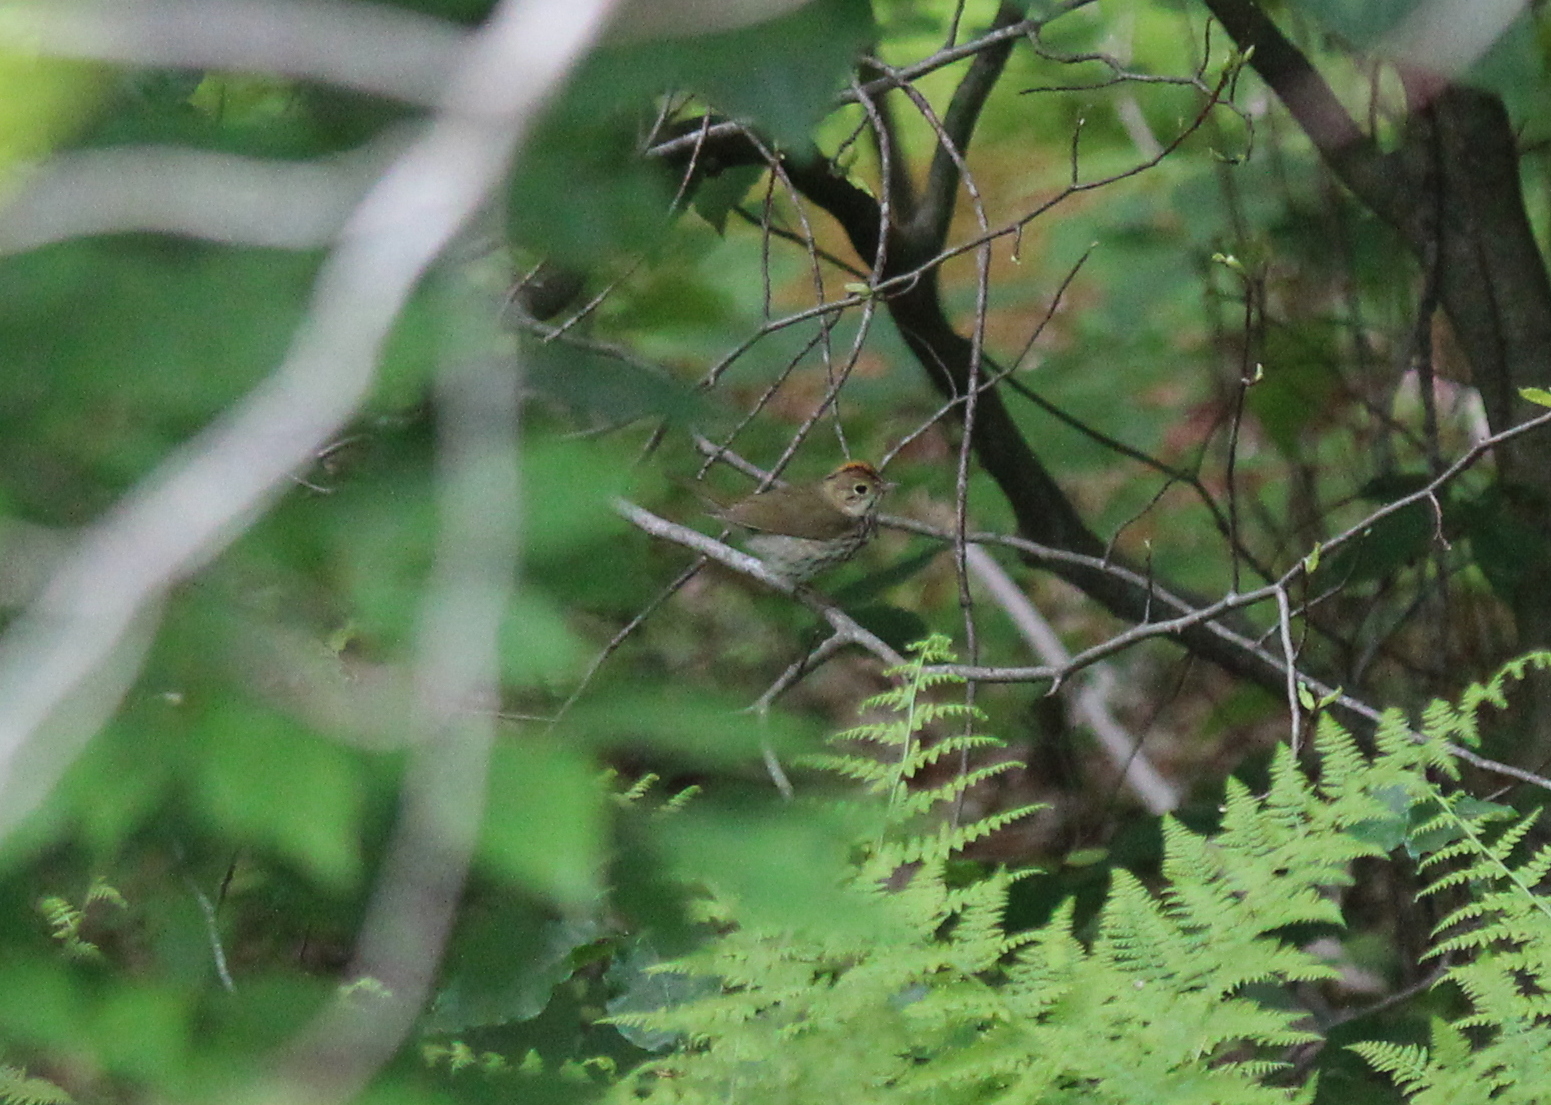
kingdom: Animalia
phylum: Chordata
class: Aves
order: Passeriformes
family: Parulidae
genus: Seiurus
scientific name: Seiurus aurocapilla
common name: Ovenbird
